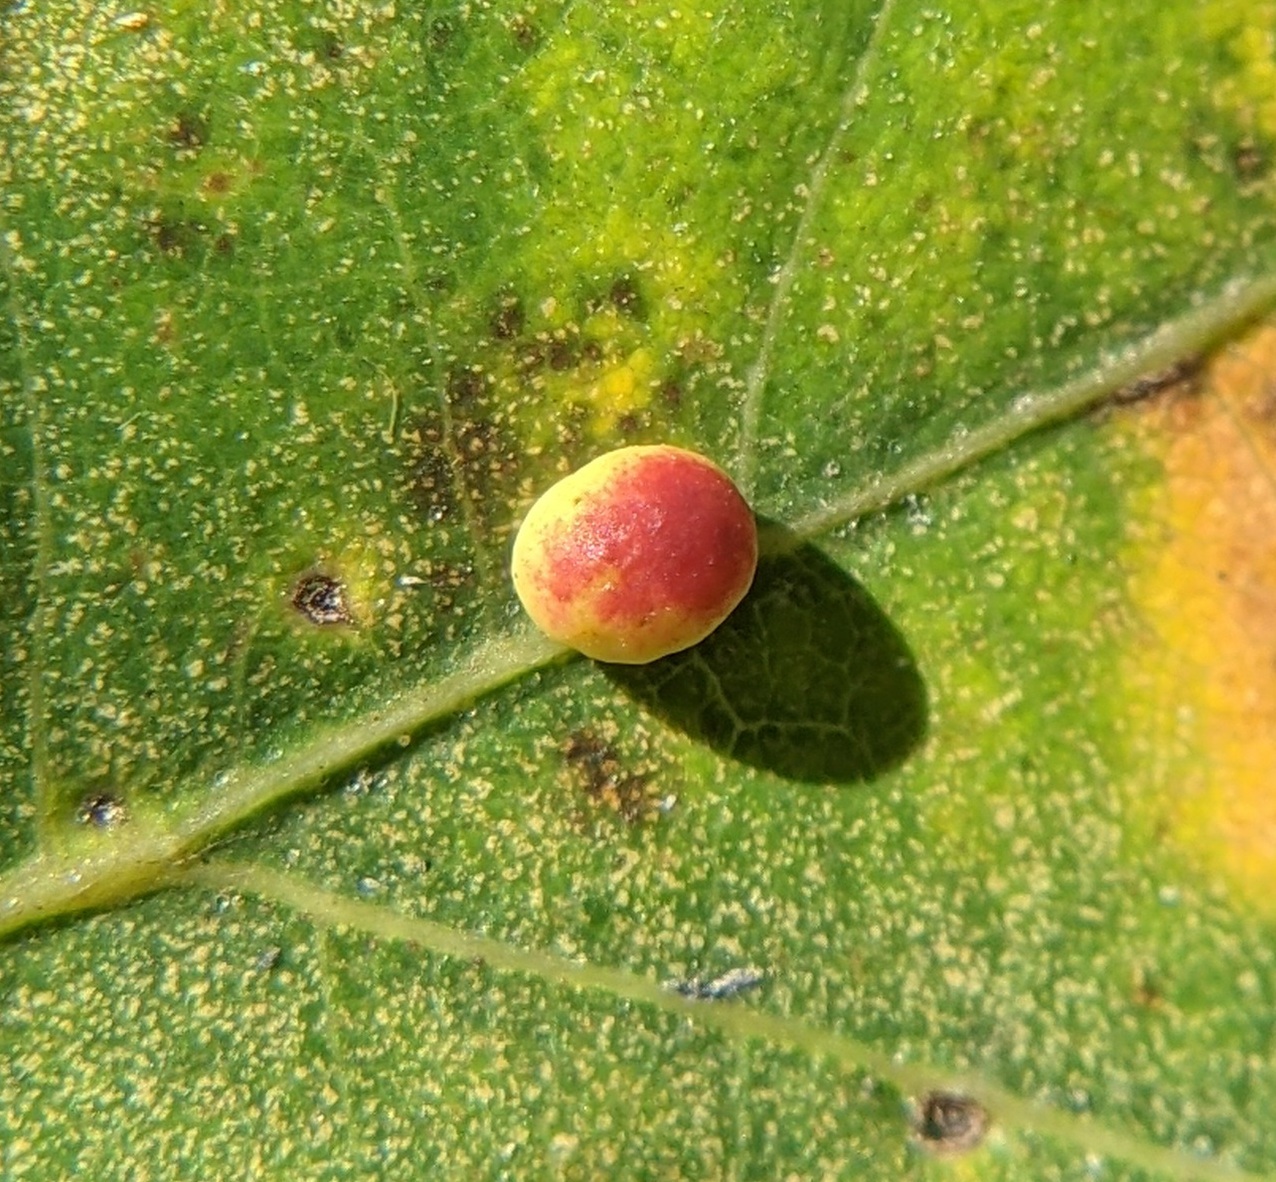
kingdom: Animalia
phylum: Arthropoda
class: Insecta
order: Hymenoptera
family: Cynipidae
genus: Zopheroteras
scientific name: Zopheroteras
